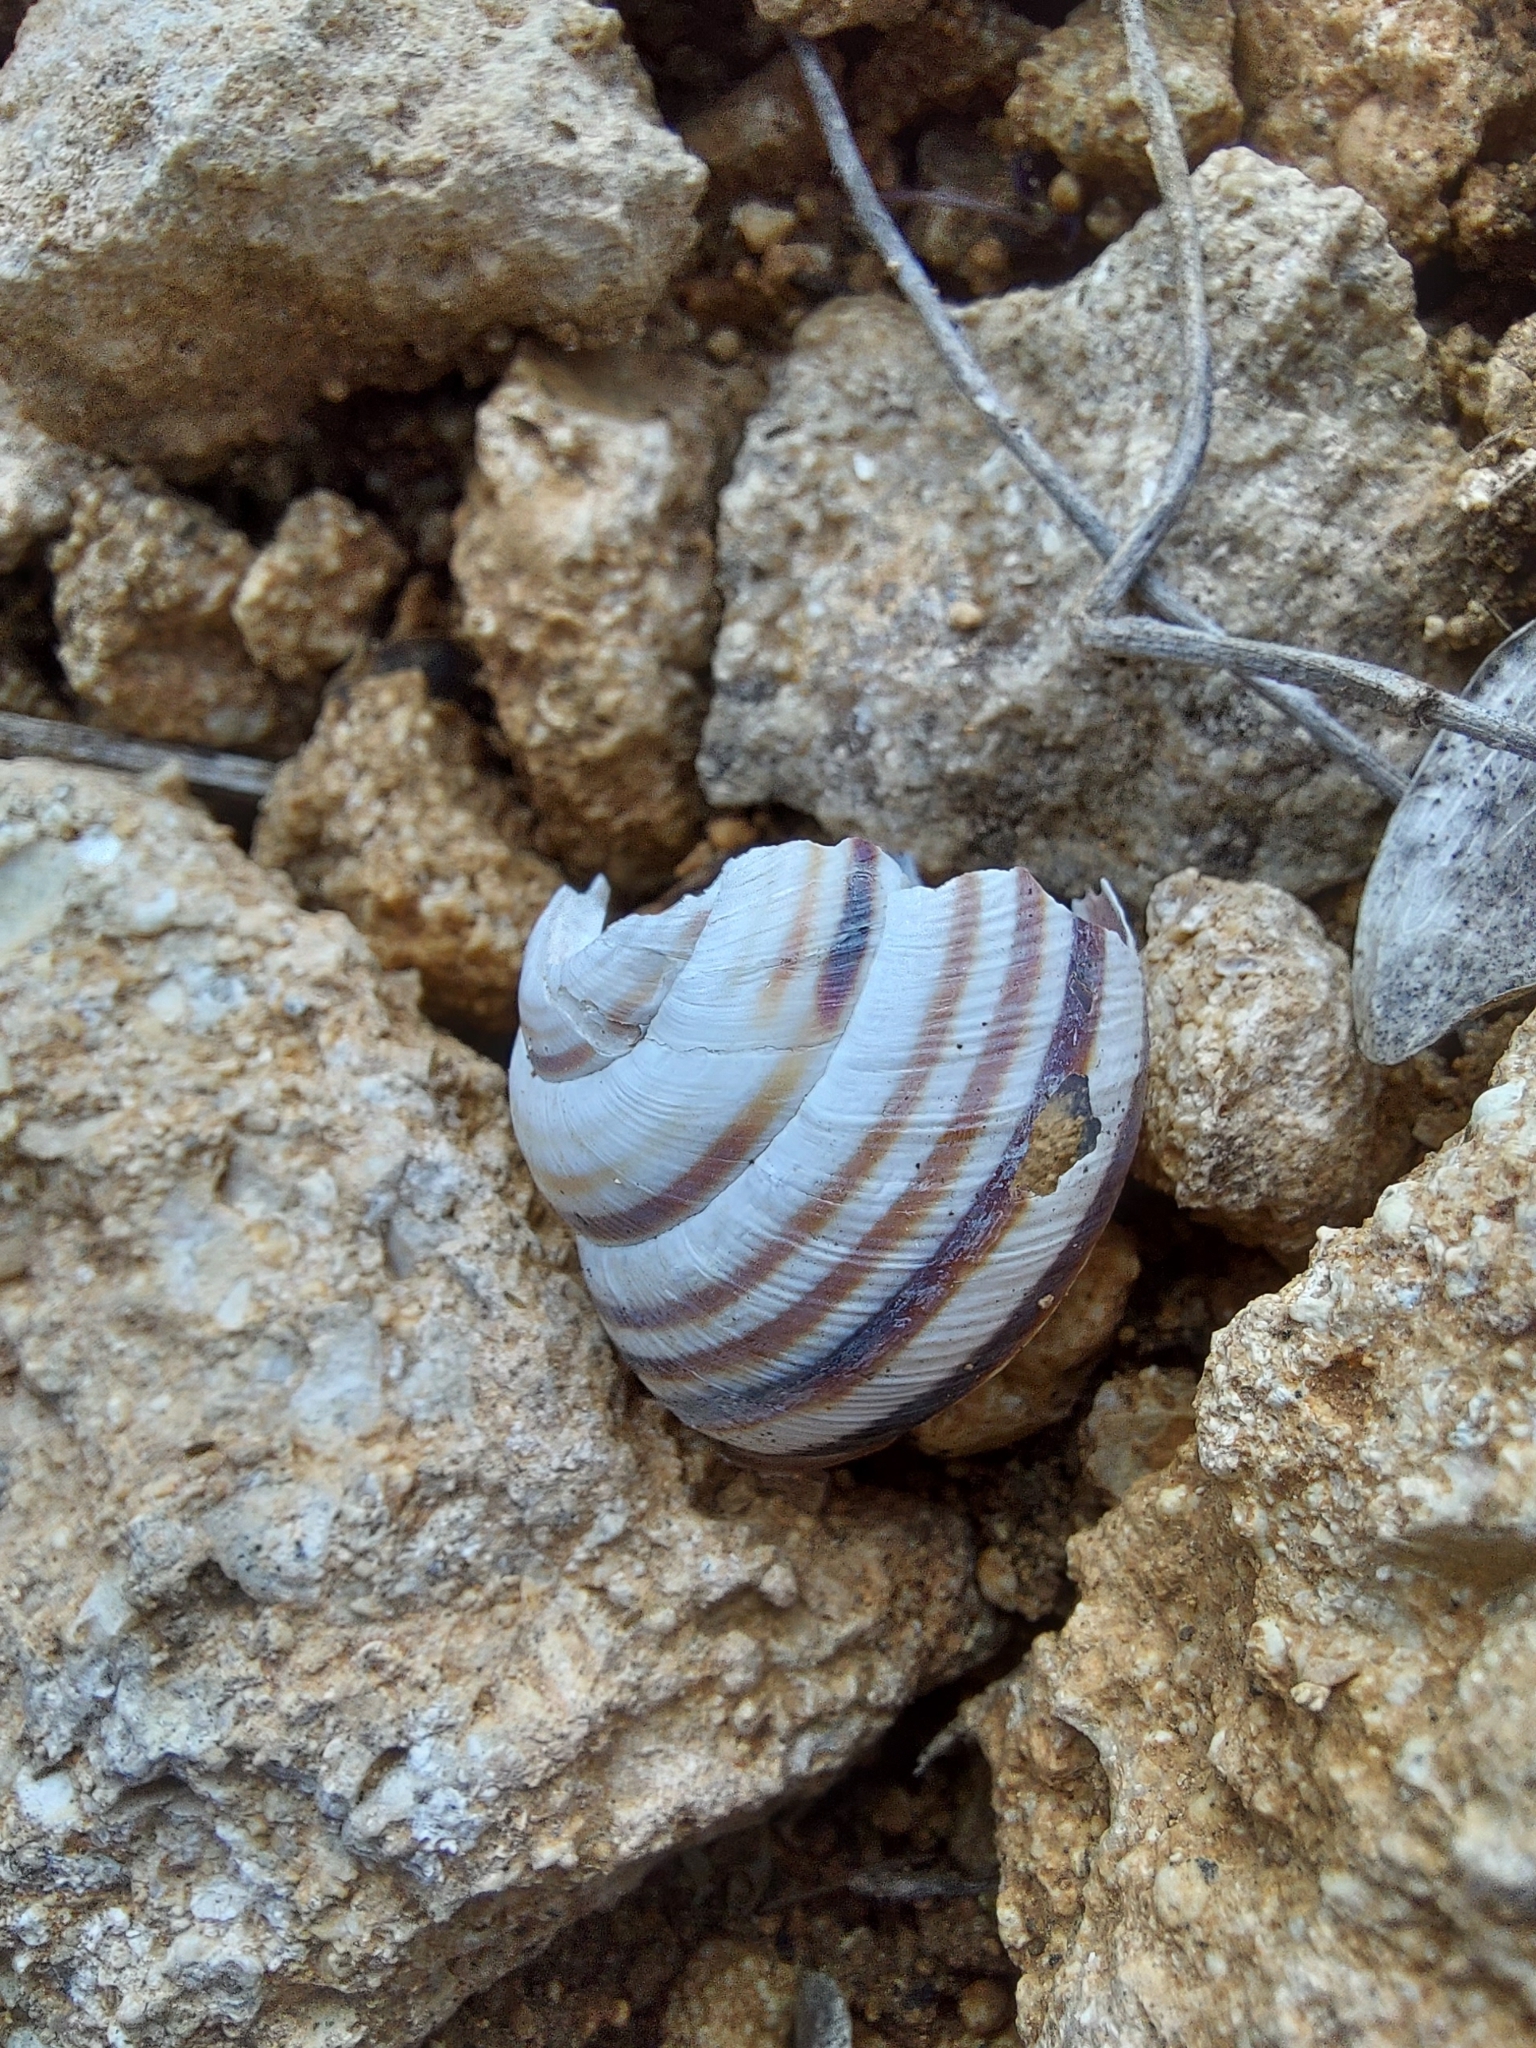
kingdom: Animalia
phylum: Mollusca
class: Gastropoda
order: Stylommatophora
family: Helicidae
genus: Caucasotachea
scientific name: Caucasotachea vindobonensis
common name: European helicid land snail
